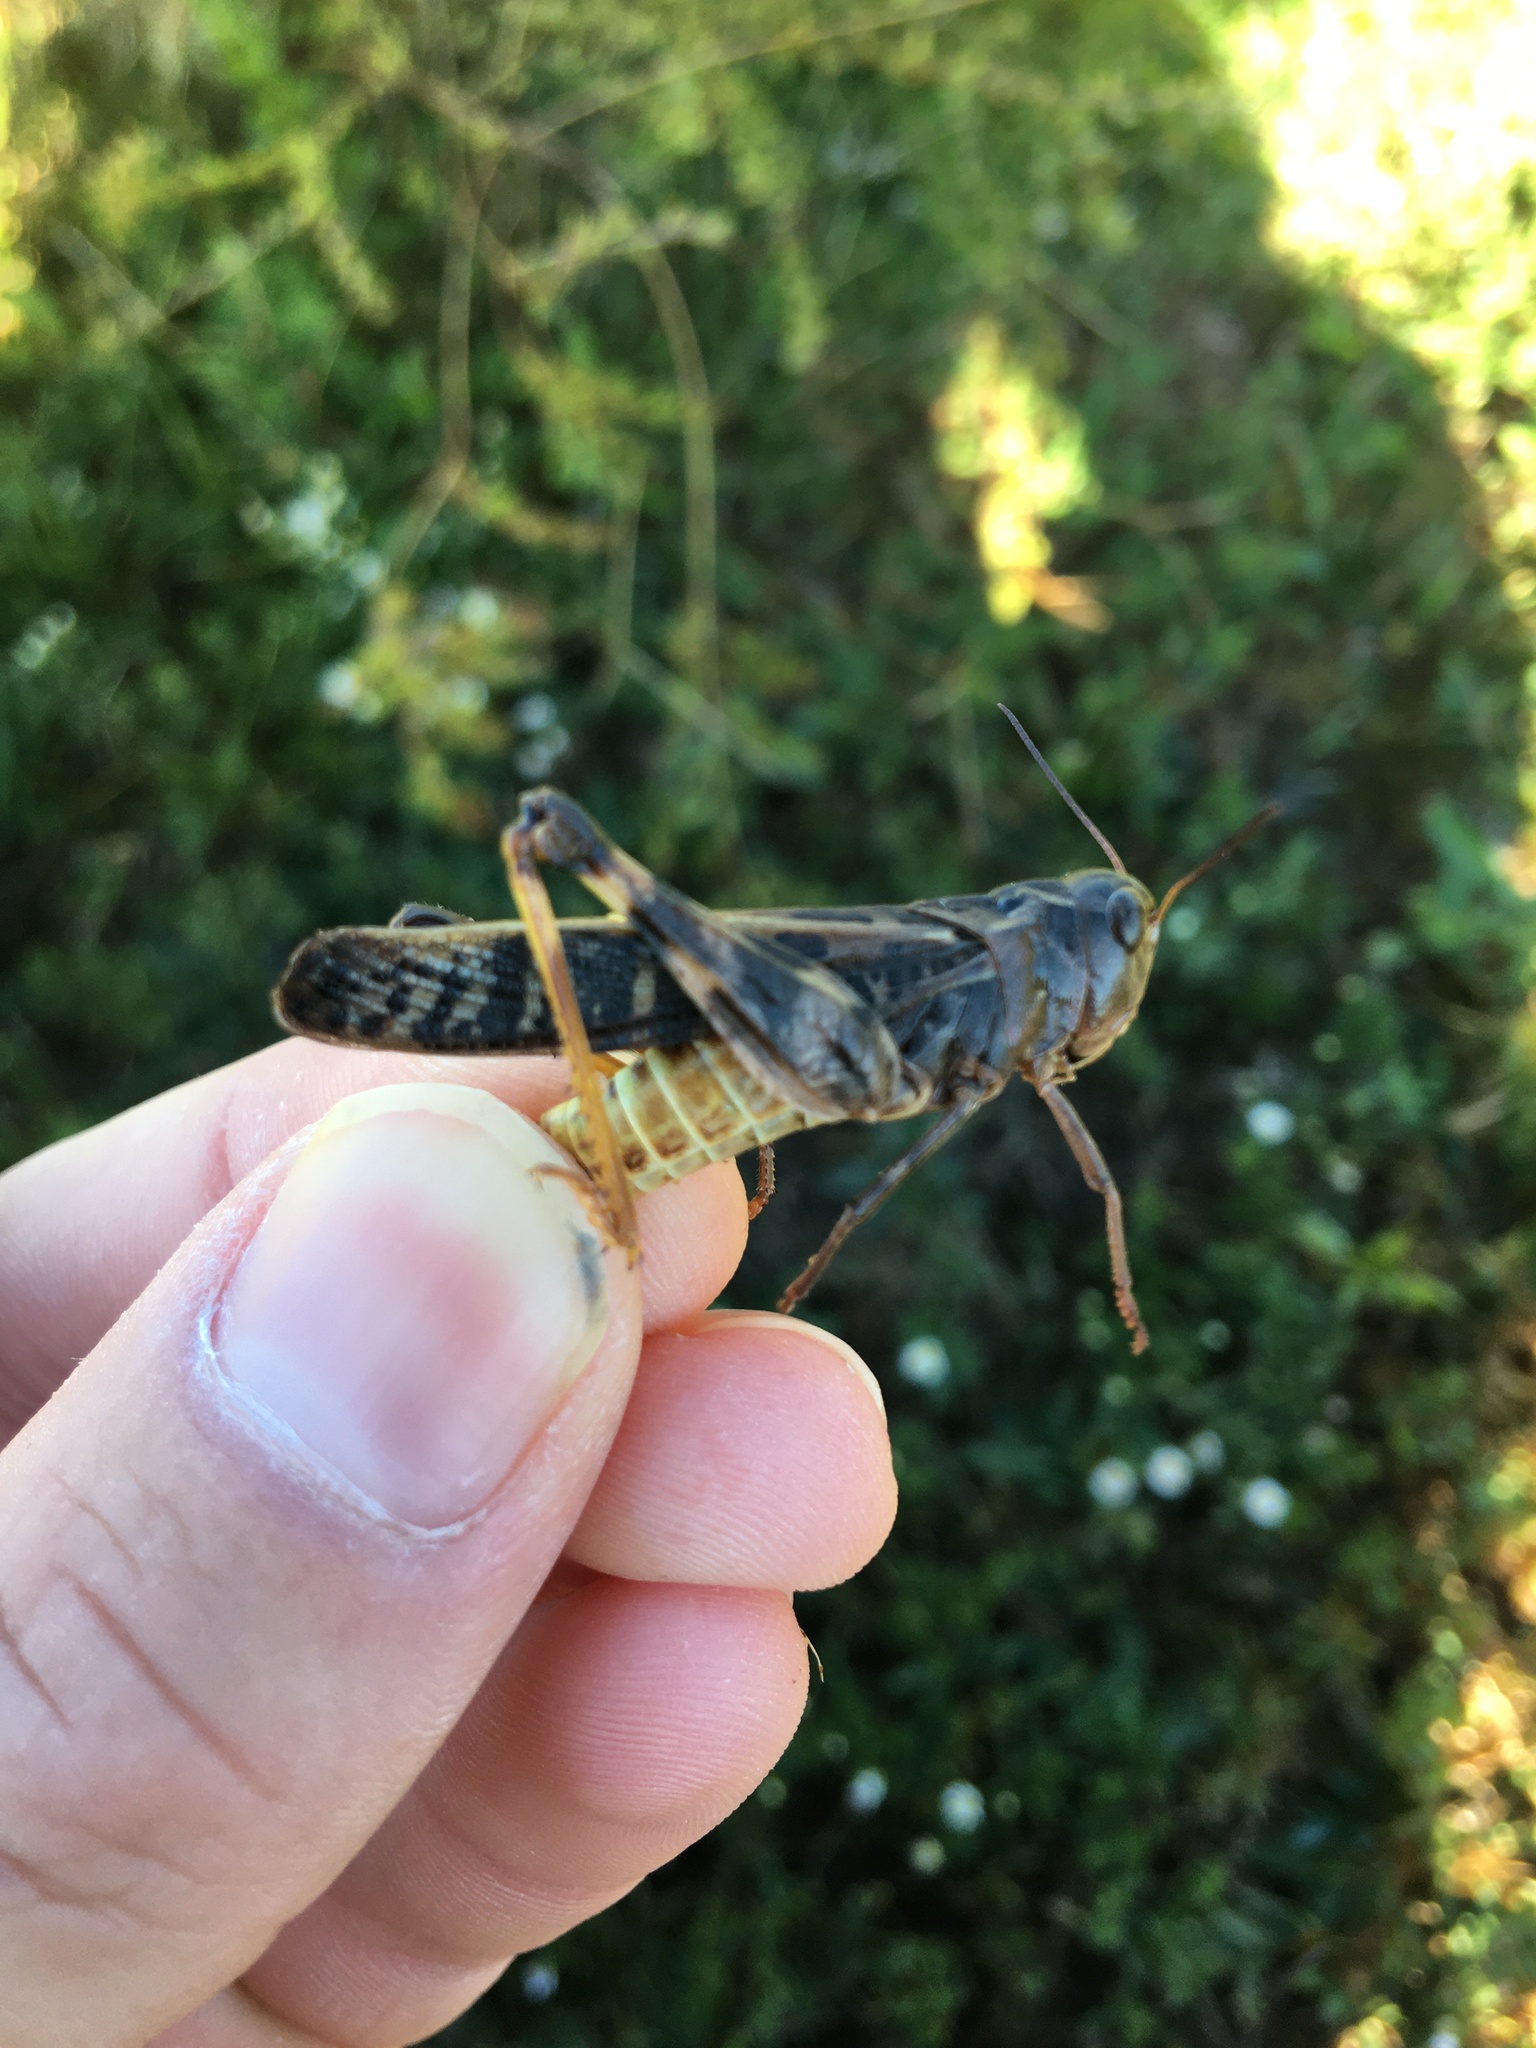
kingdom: Animalia
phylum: Arthropoda
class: Insecta
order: Orthoptera
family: Acrididae
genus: Hippiscus
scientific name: Hippiscus ocelote
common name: Wrinkled grasshopper
